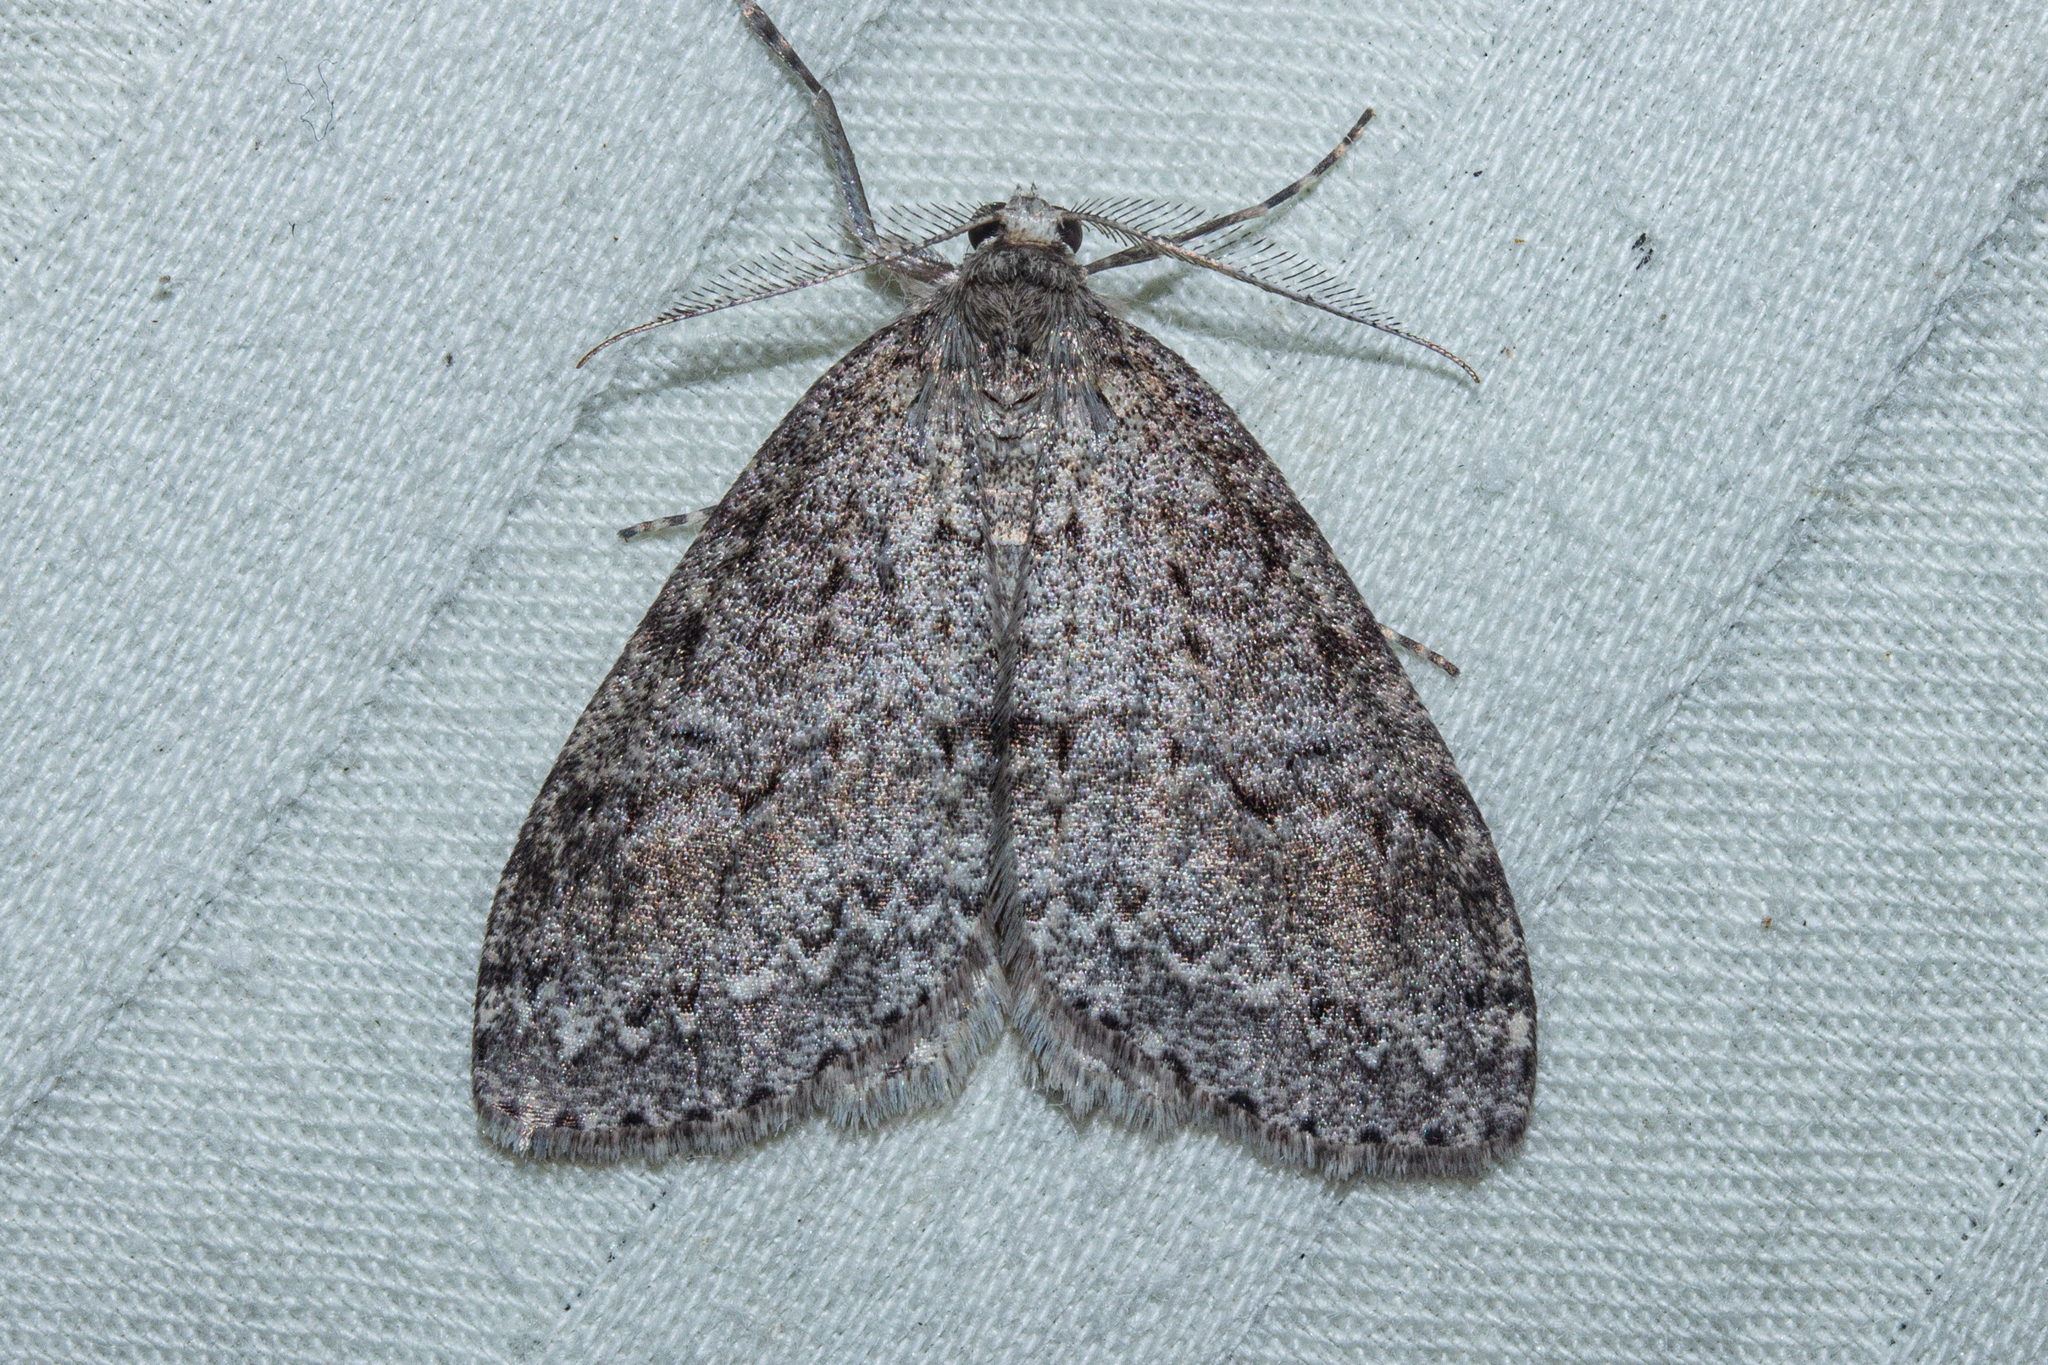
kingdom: Animalia
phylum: Arthropoda
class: Insecta
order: Lepidoptera
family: Geometridae
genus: Pseudocoremia
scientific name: Pseudocoremia fenerata
